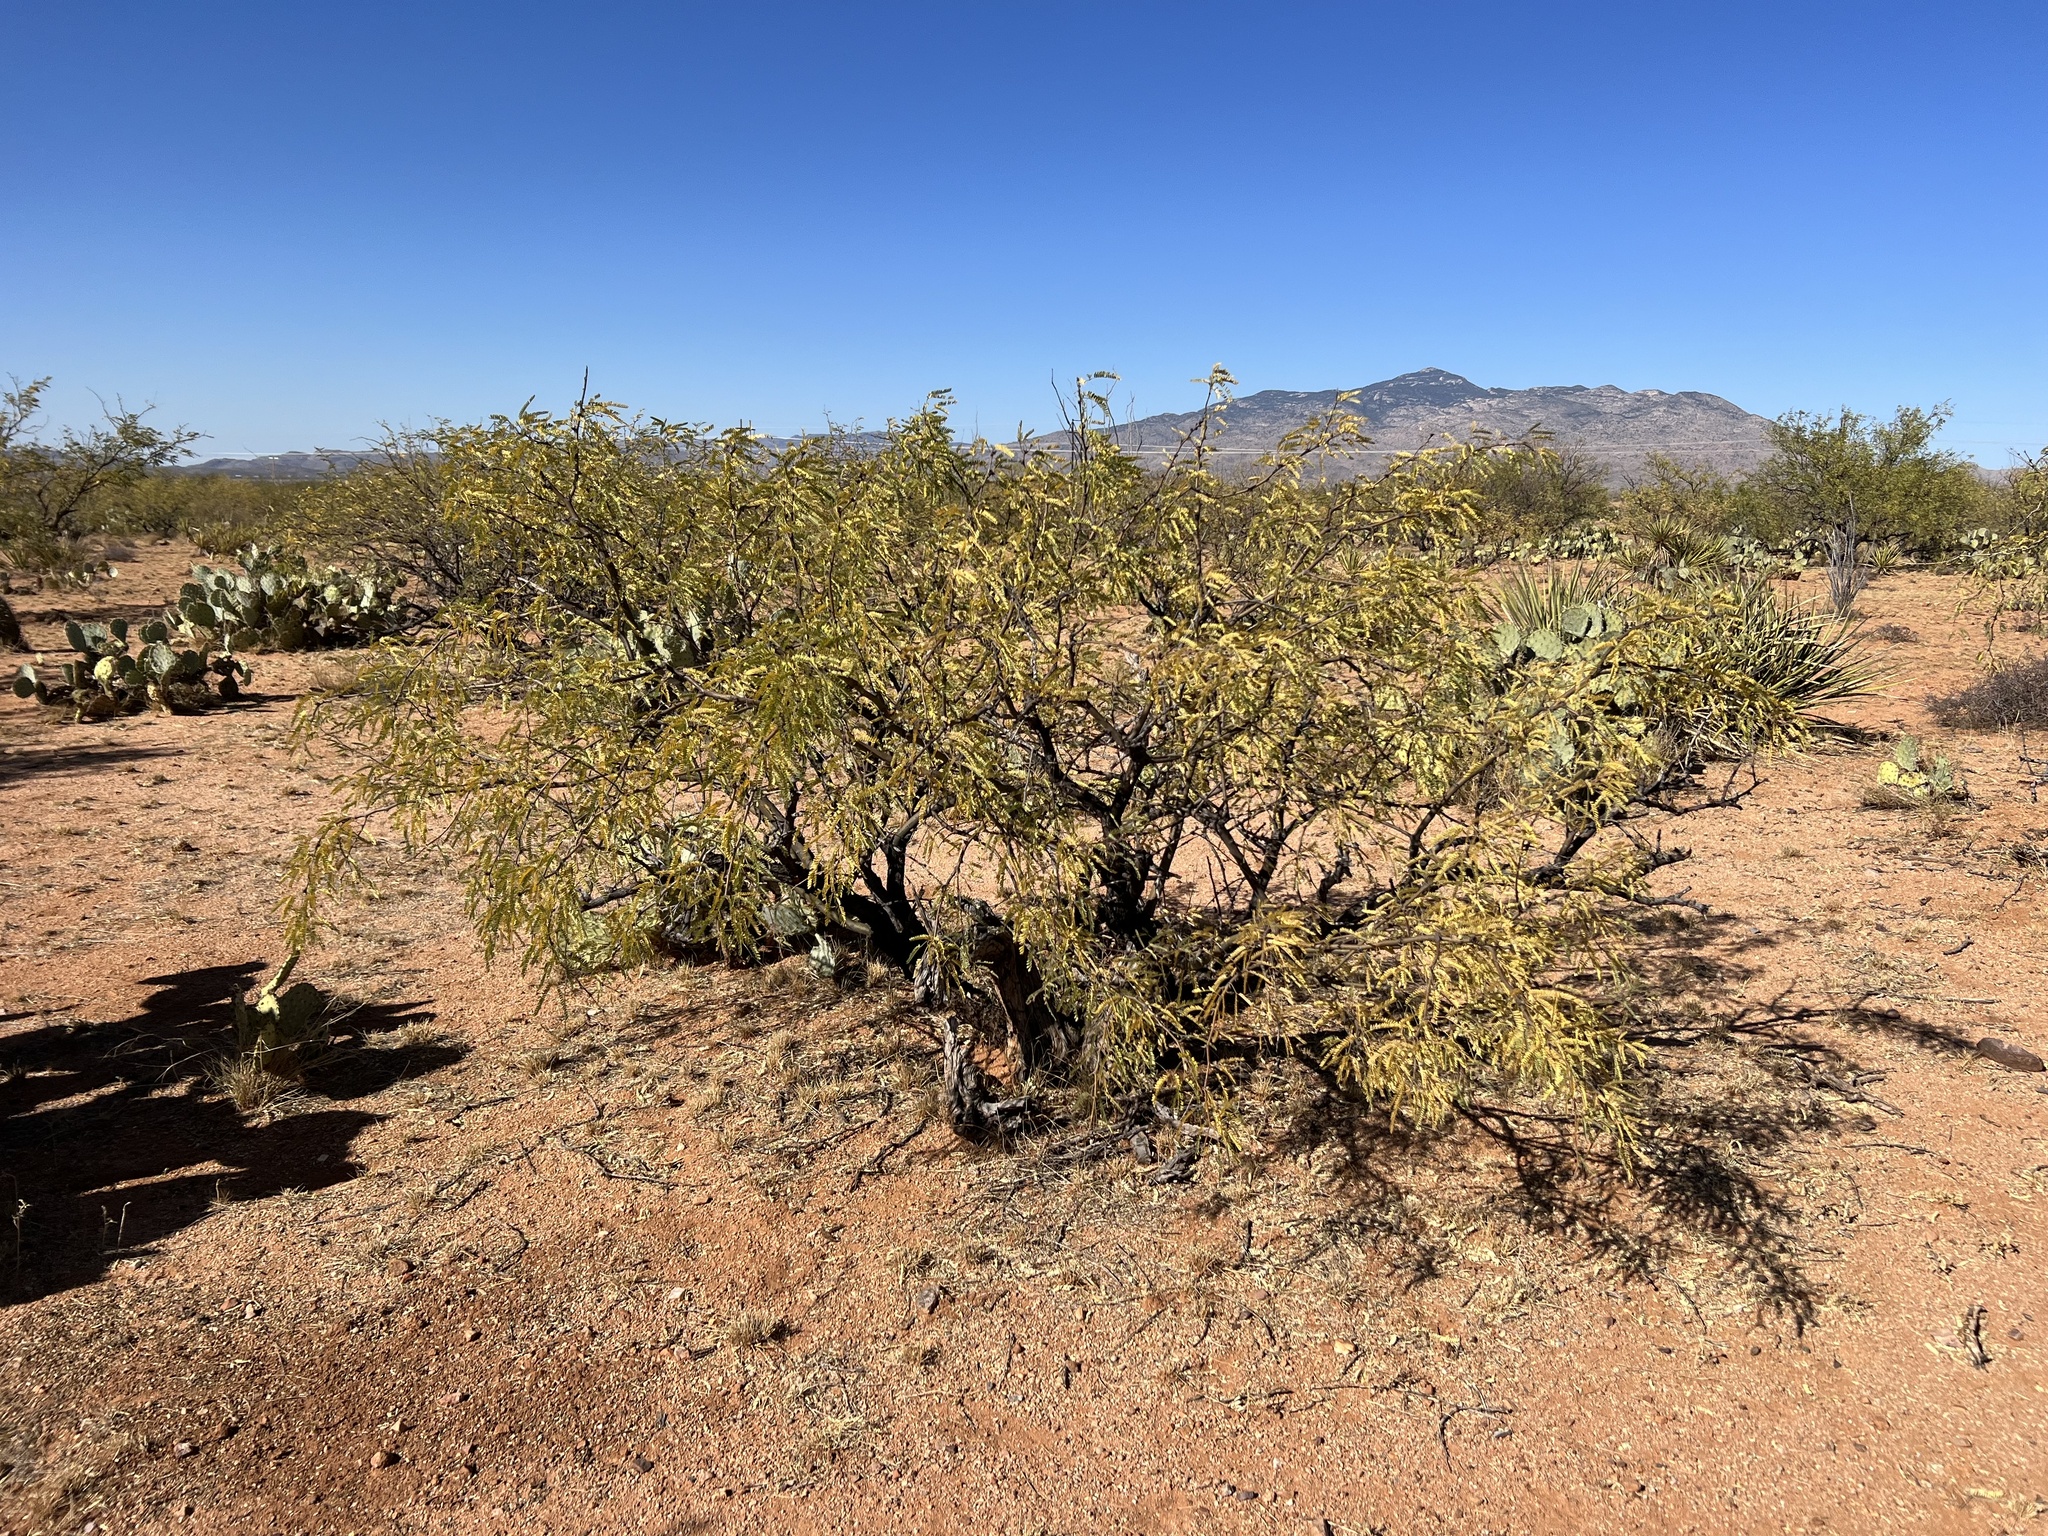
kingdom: Plantae
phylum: Tracheophyta
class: Magnoliopsida
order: Fabales
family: Fabaceae
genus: Prosopis
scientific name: Prosopis velutina
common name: Velvet mesquite
